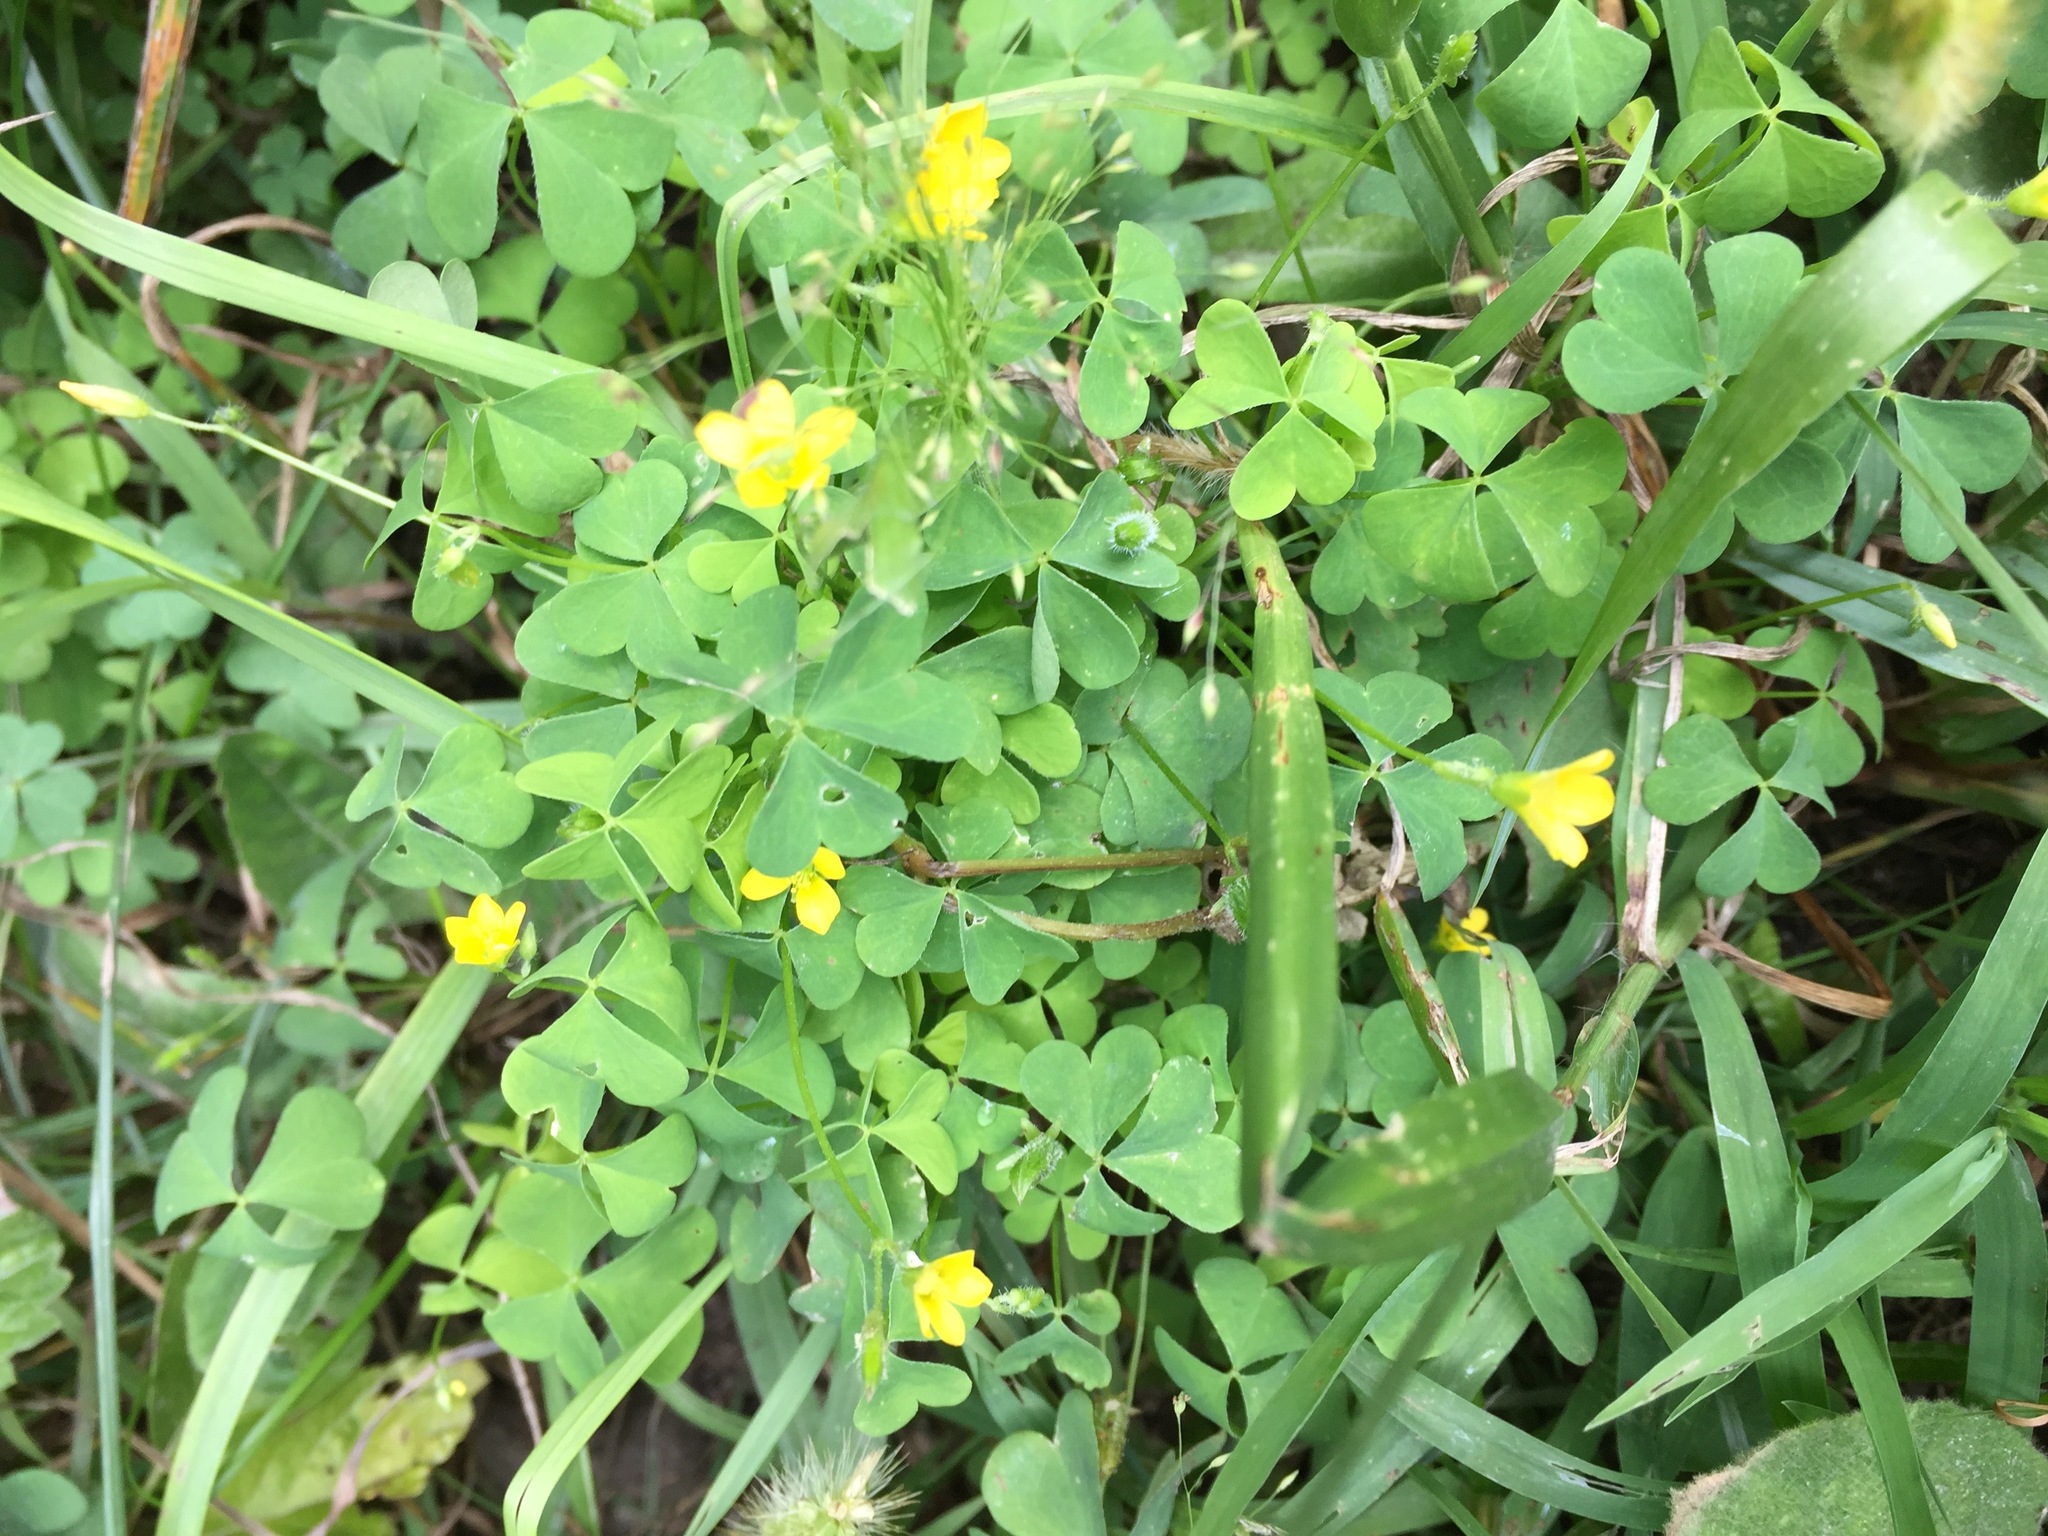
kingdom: Plantae
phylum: Tracheophyta
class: Magnoliopsida
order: Oxalidales
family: Oxalidaceae
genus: Oxalis
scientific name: Oxalis stricta
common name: Upright yellow-sorrel
